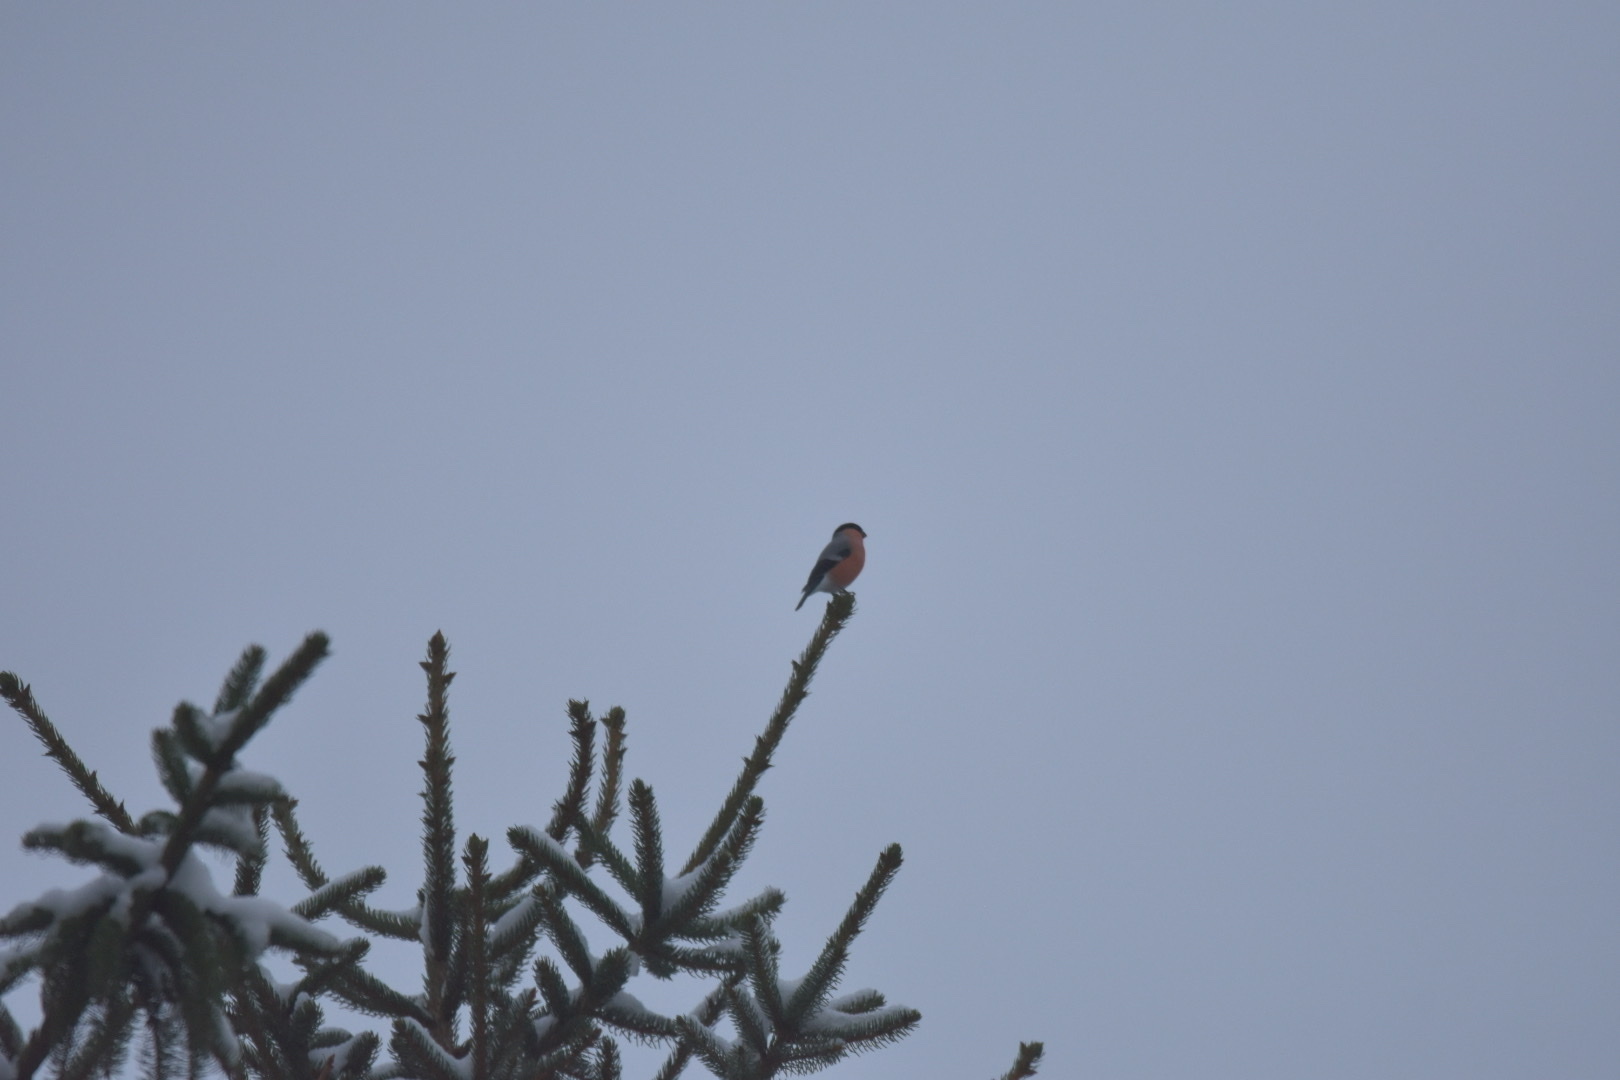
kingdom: Animalia
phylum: Chordata
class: Aves
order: Passeriformes
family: Fringillidae
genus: Pyrrhula
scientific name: Pyrrhula pyrrhula
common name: Eurasian bullfinch
